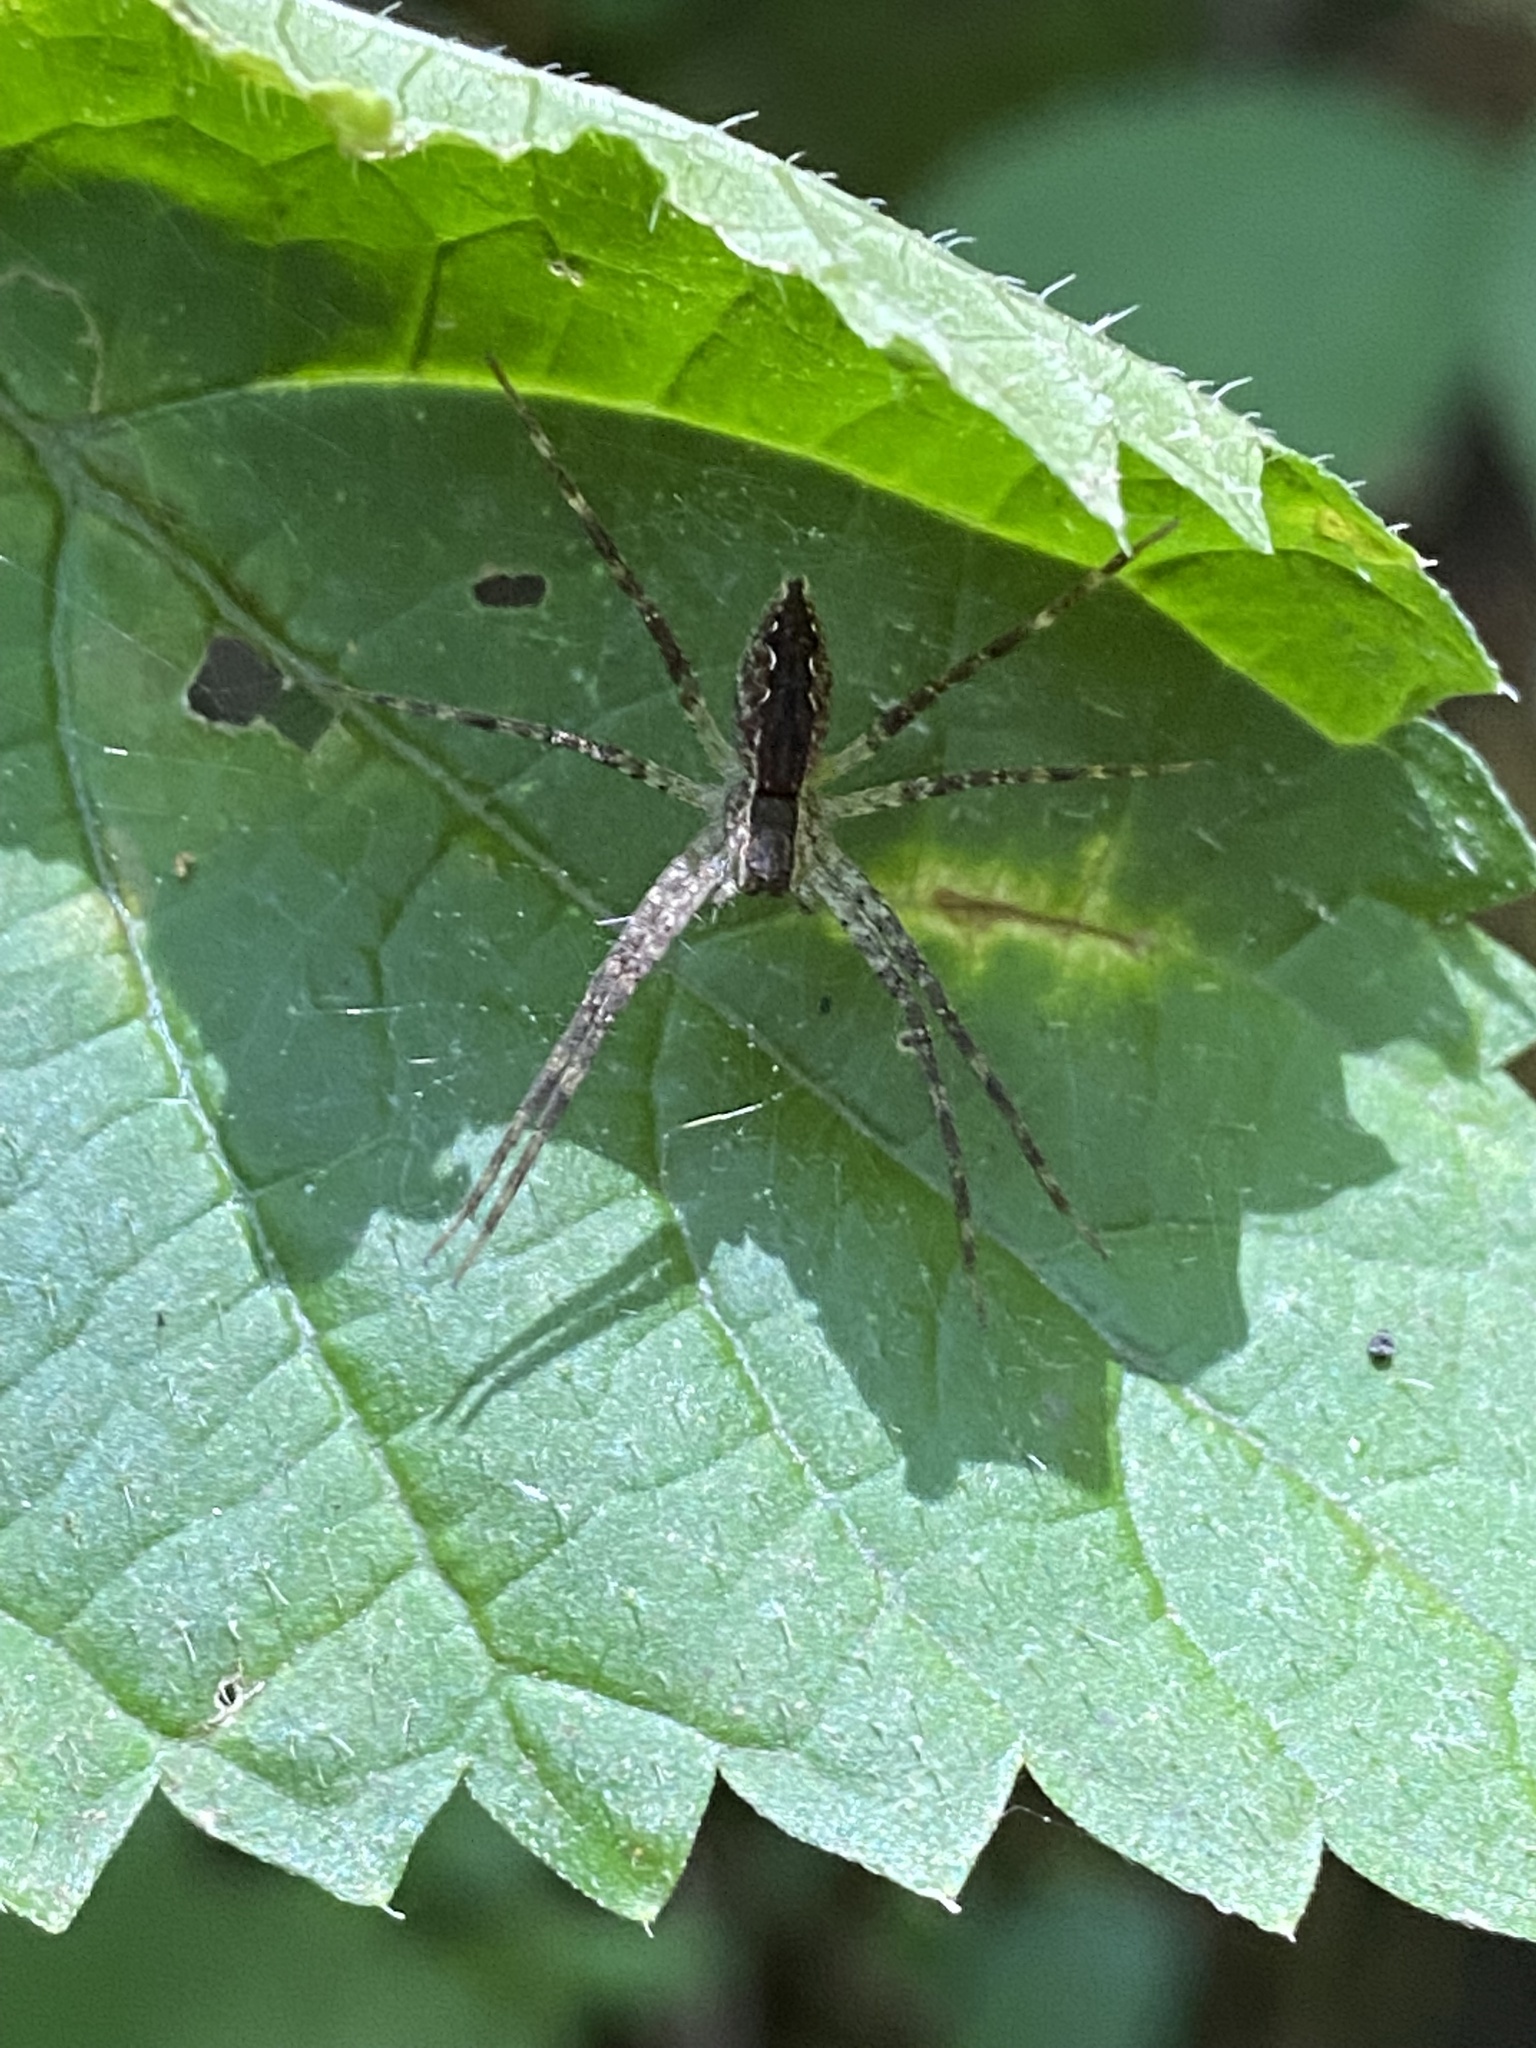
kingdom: Animalia
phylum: Arthropoda
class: Arachnida
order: Araneae
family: Pisauridae
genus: Pisaurina
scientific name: Pisaurina mira
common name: American nursery web spider
